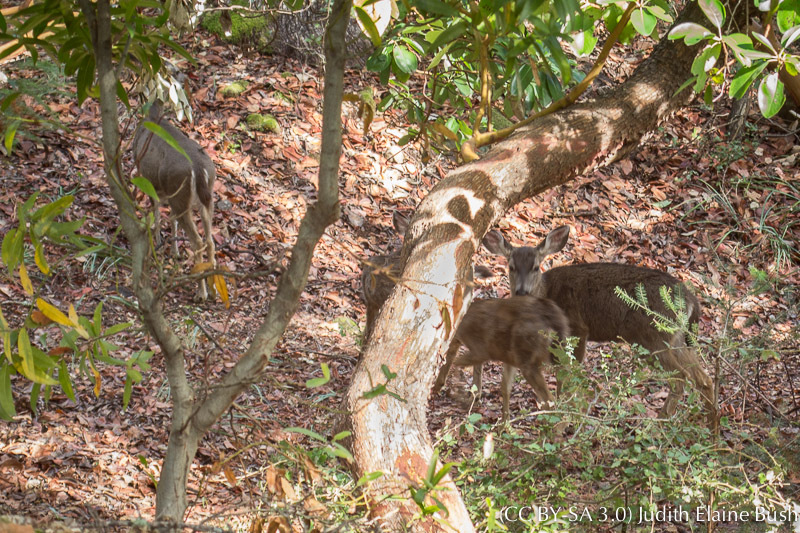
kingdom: Animalia
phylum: Chordata
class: Mammalia
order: Artiodactyla
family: Cervidae
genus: Odocoileus
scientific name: Odocoileus hemionus
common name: Mule deer
